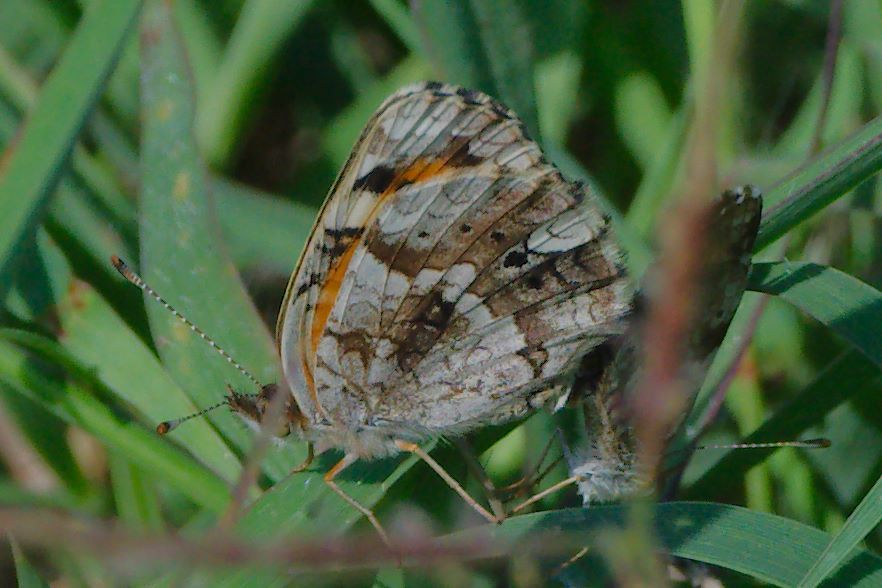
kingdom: Animalia
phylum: Arthropoda
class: Insecta
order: Lepidoptera
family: Nymphalidae
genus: Phyciodes
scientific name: Phyciodes phaon
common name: Phaon crescent
